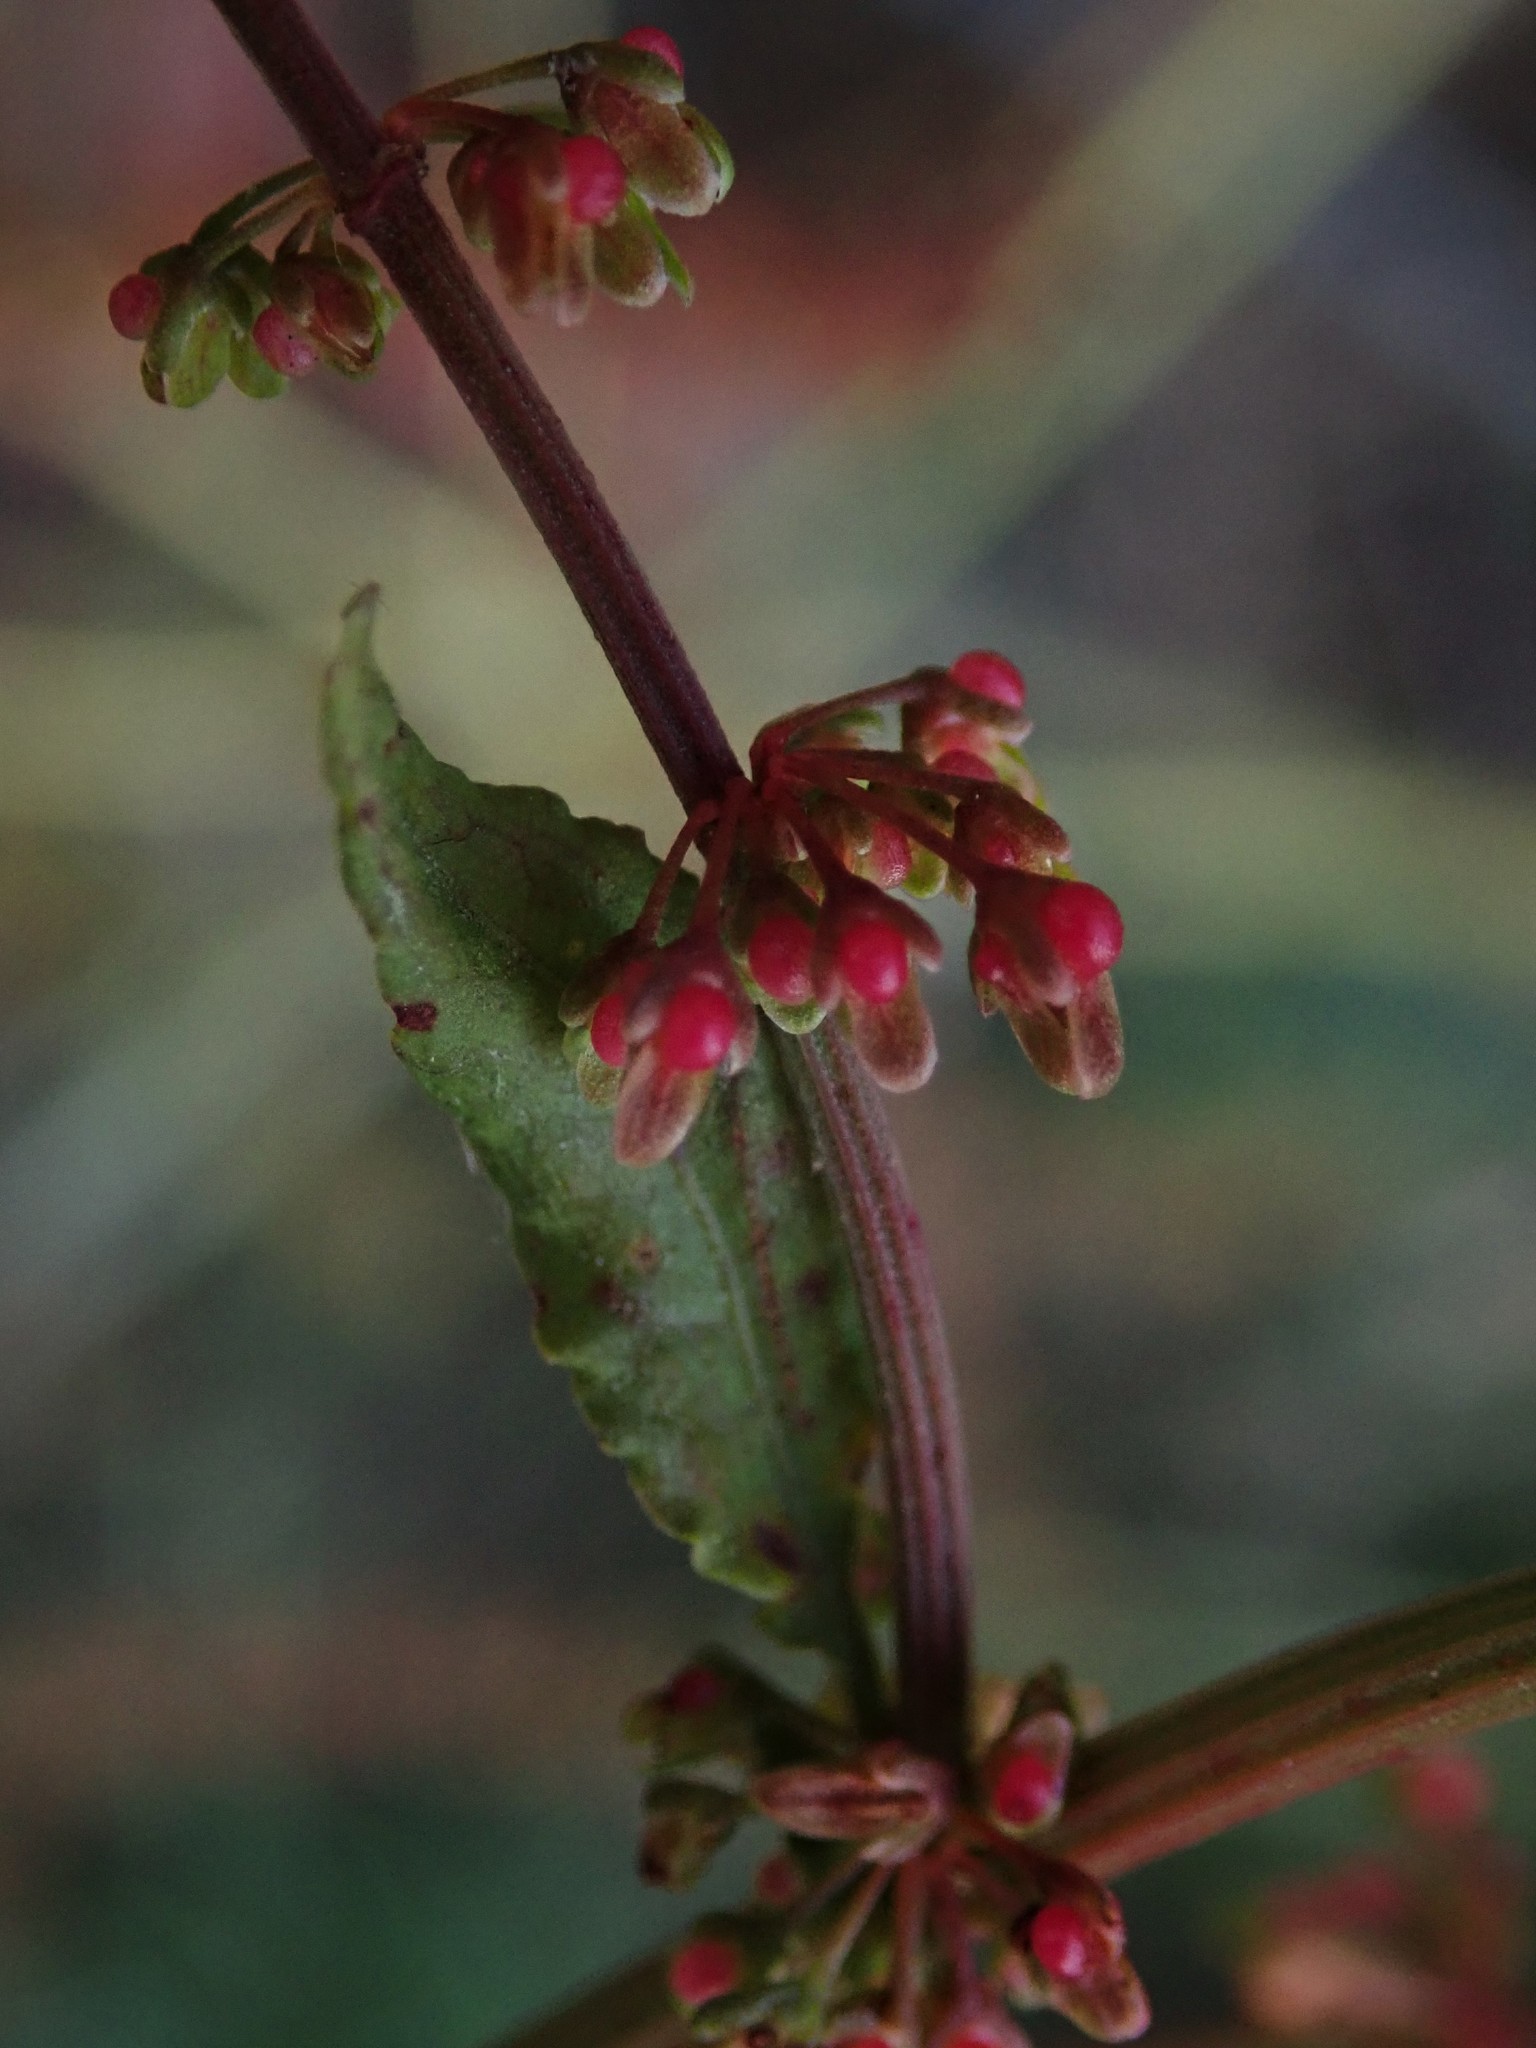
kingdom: Plantae
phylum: Tracheophyta
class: Magnoliopsida
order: Caryophyllales
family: Polygonaceae
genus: Rumex
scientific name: Rumex sanguineus
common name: Wood dock
